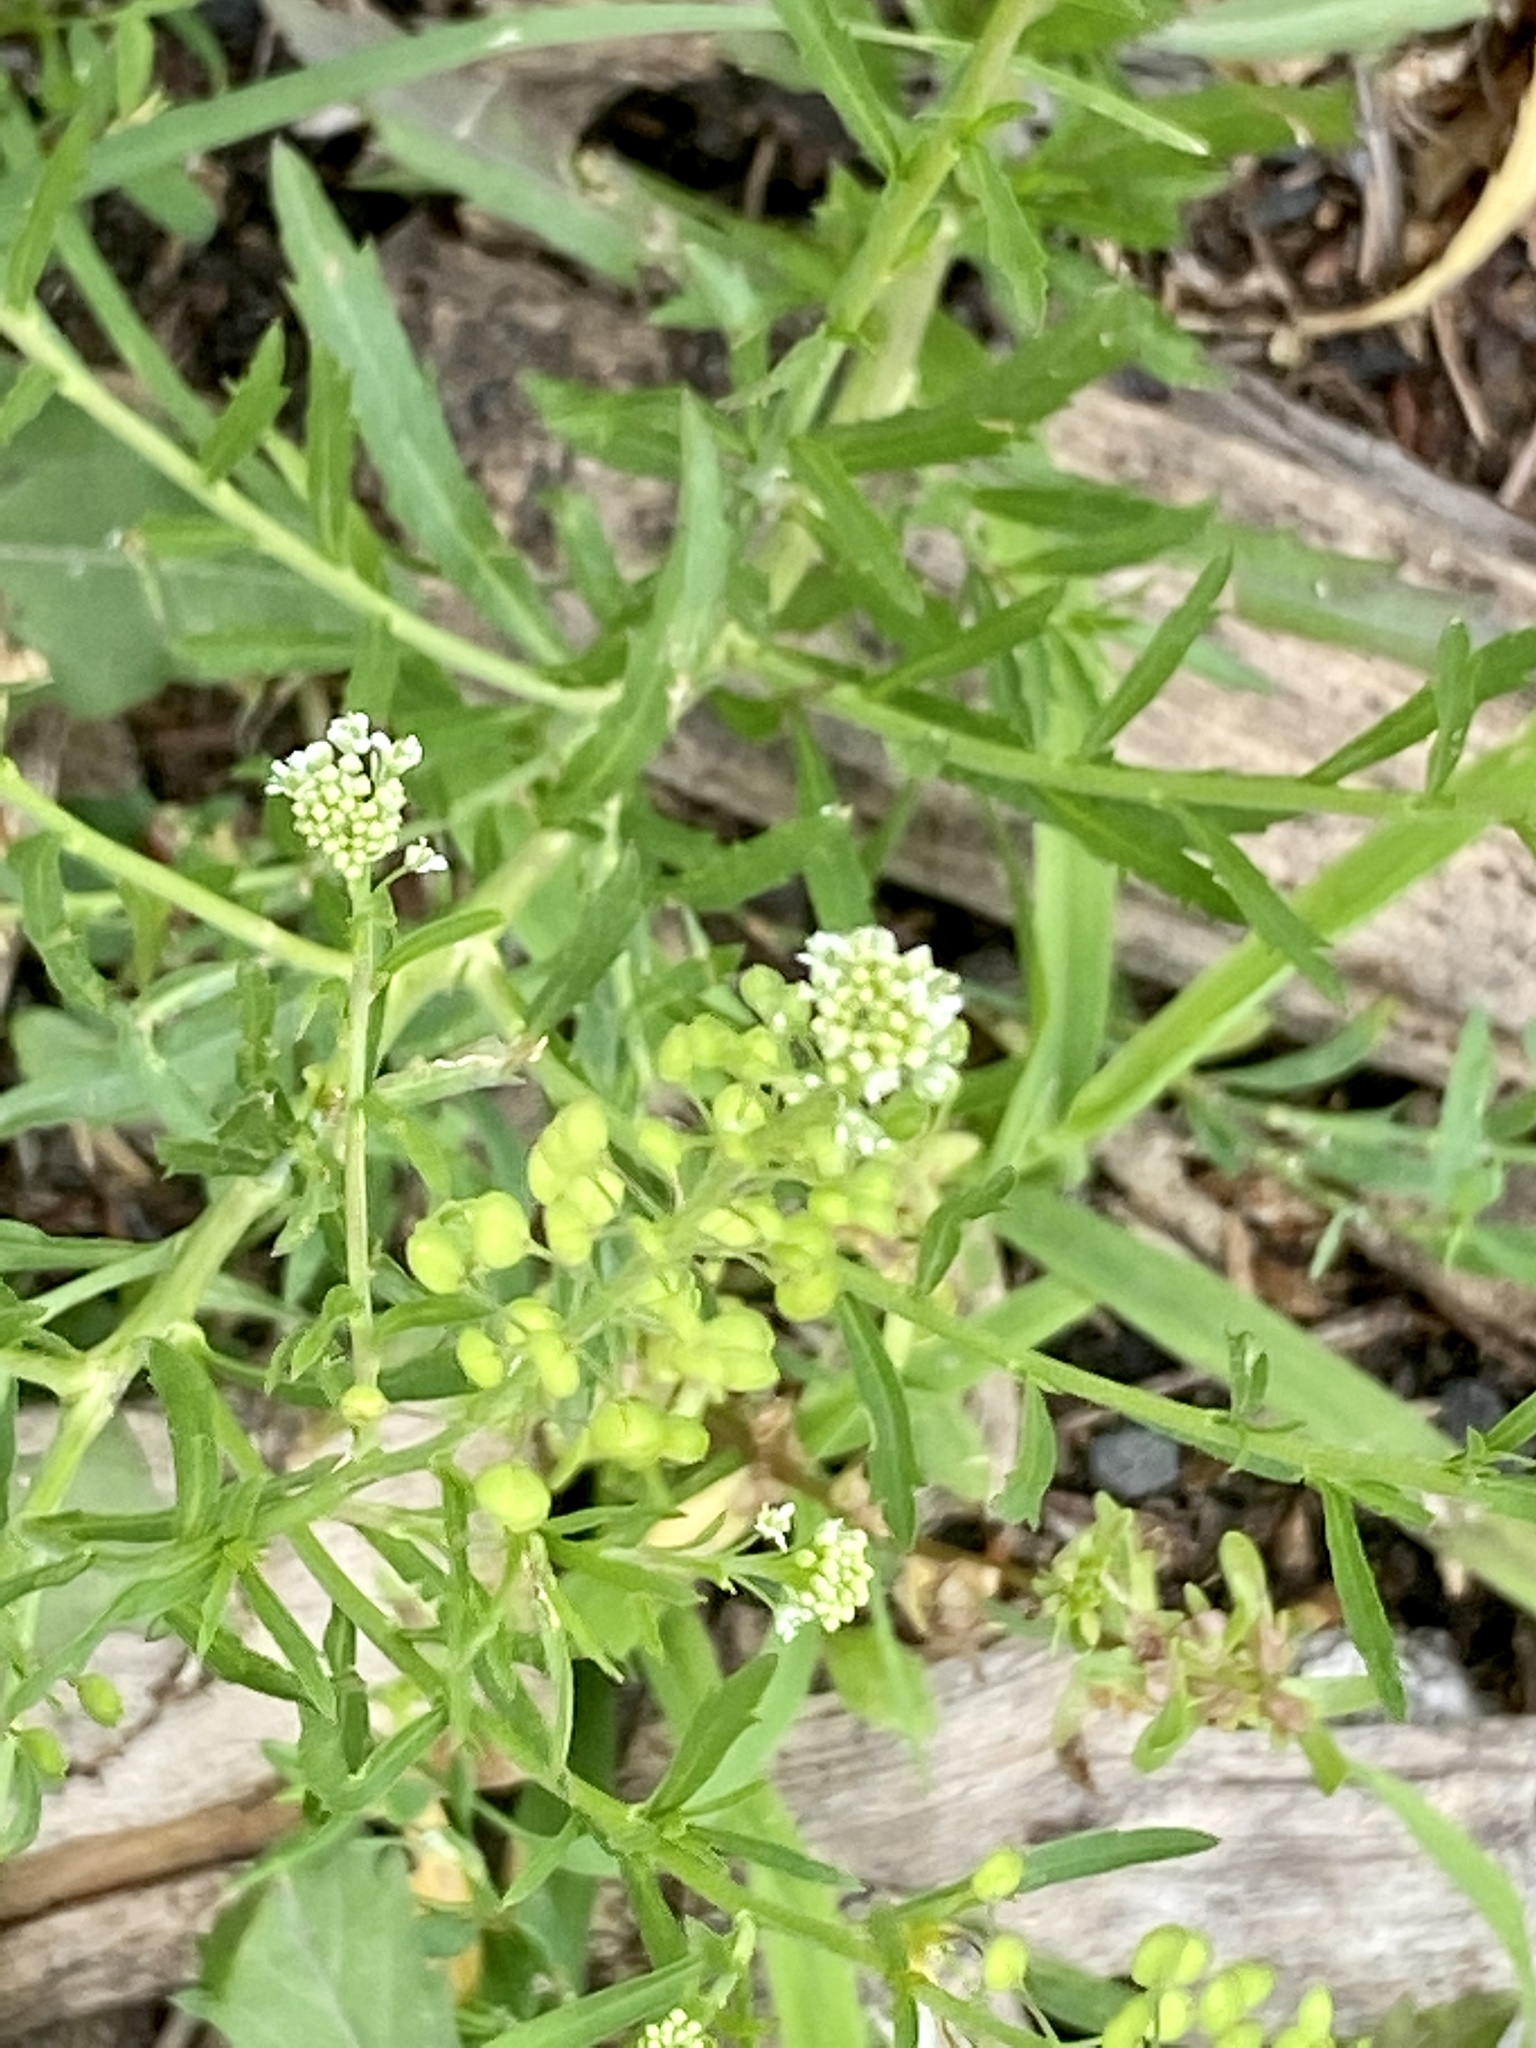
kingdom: Plantae
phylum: Tracheophyta
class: Magnoliopsida
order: Brassicales
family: Brassicaceae
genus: Lepidium
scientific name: Lepidium virginicum
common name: Least pepperwort
